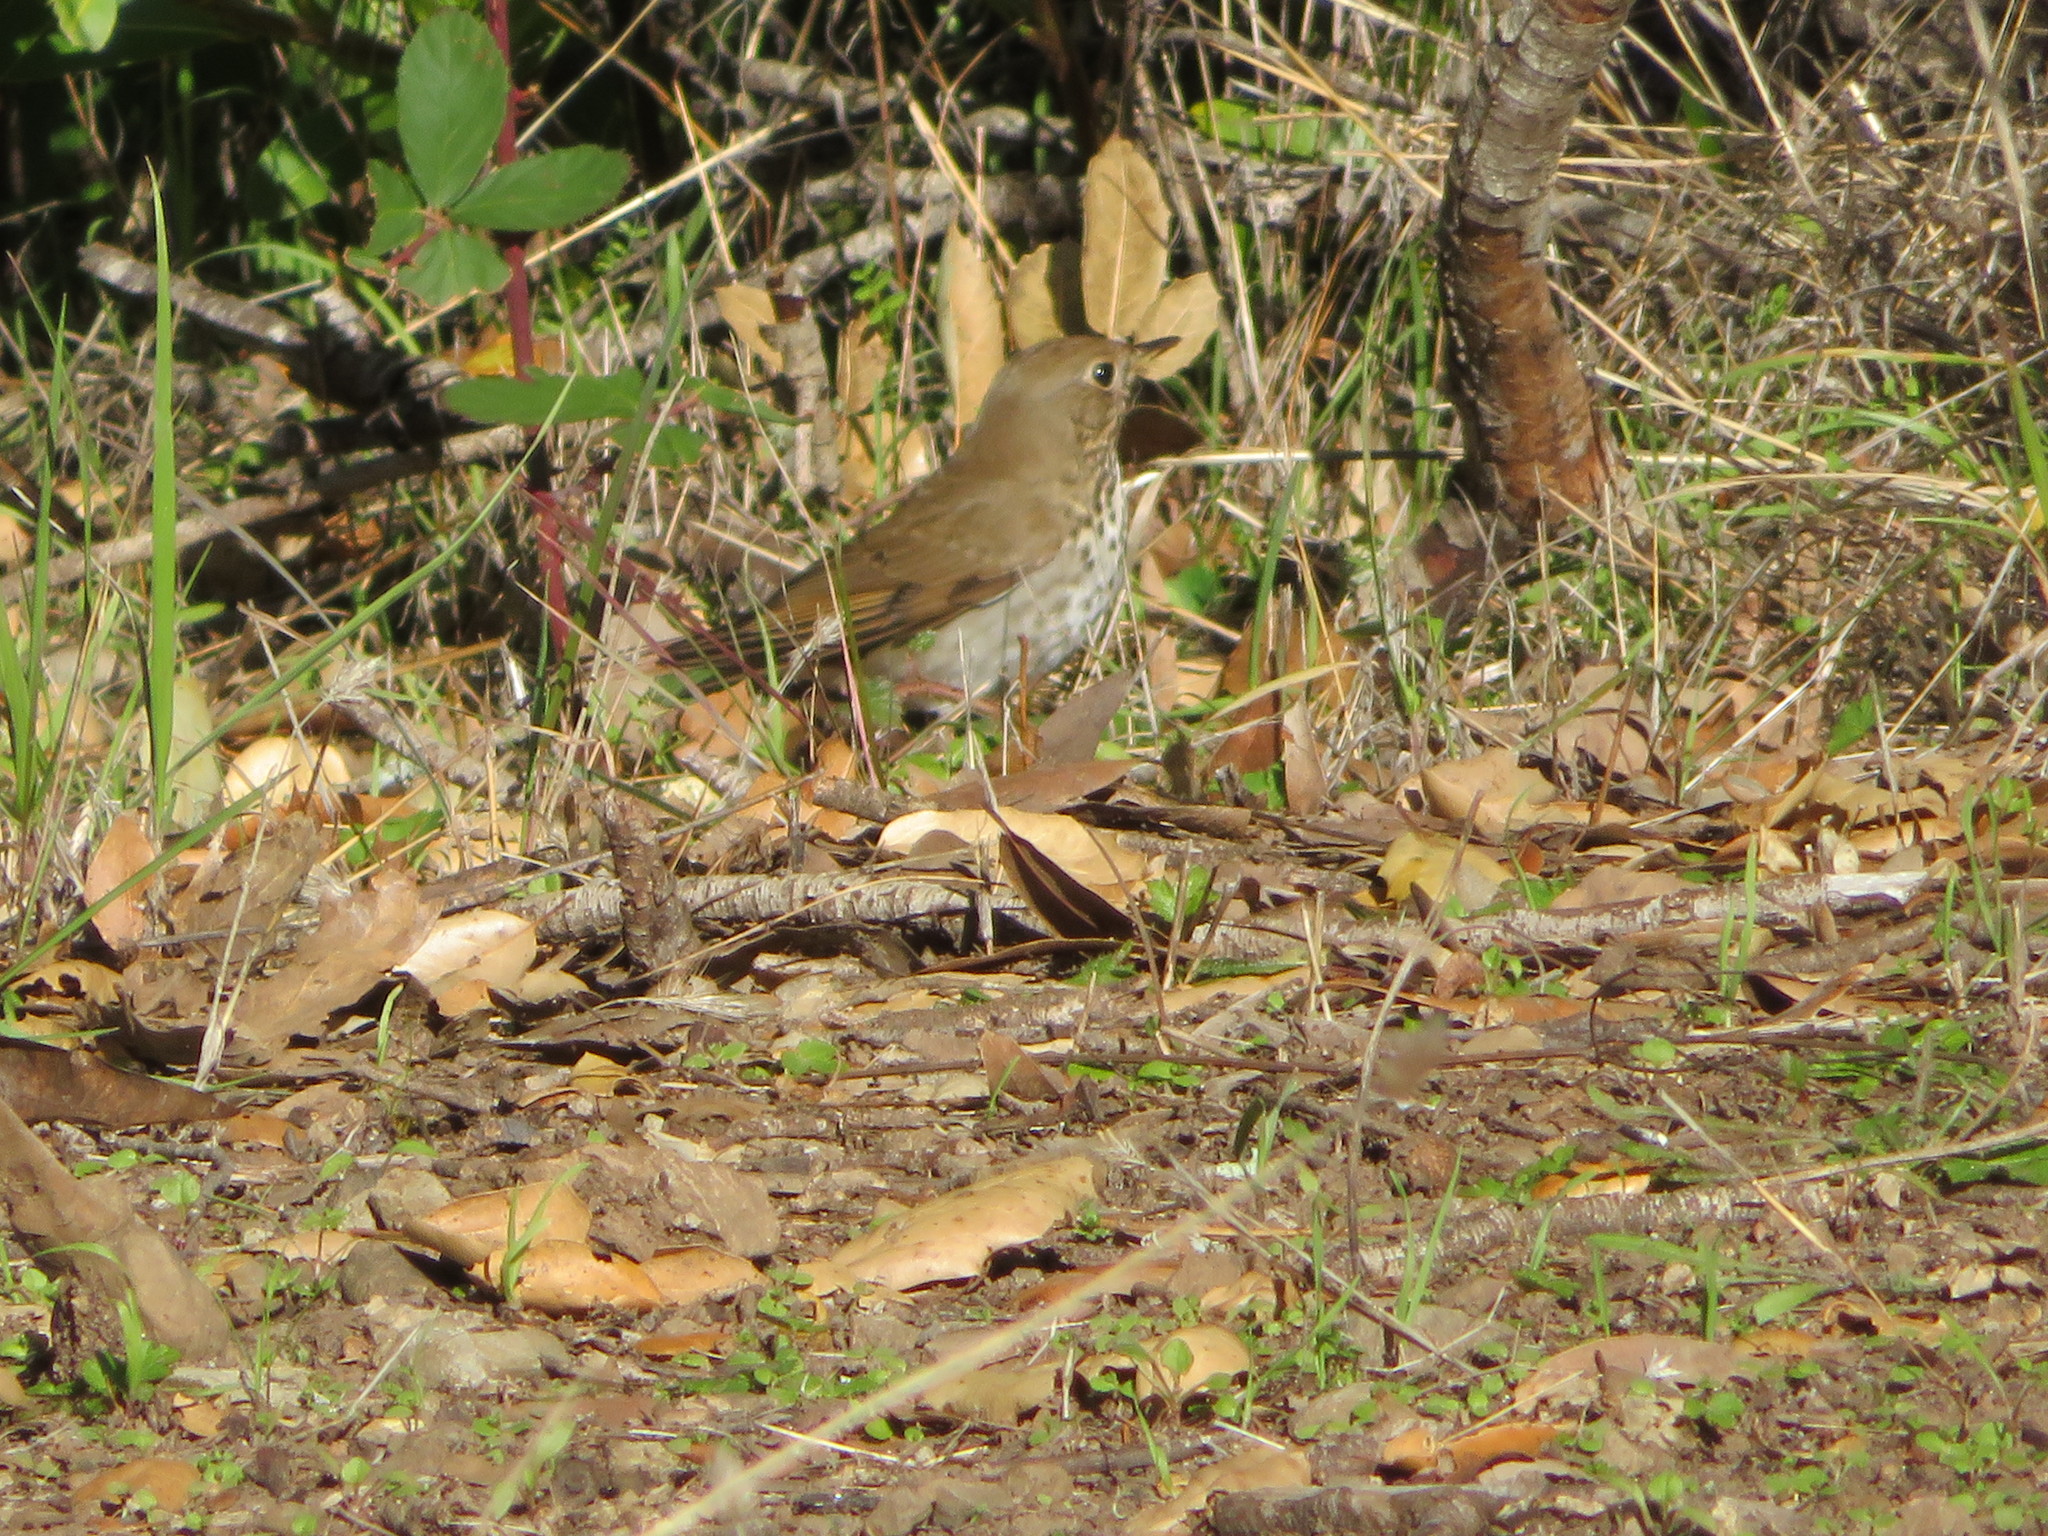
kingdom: Animalia
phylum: Chordata
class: Aves
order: Passeriformes
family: Turdidae
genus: Catharus
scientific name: Catharus guttatus
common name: Hermit thrush
